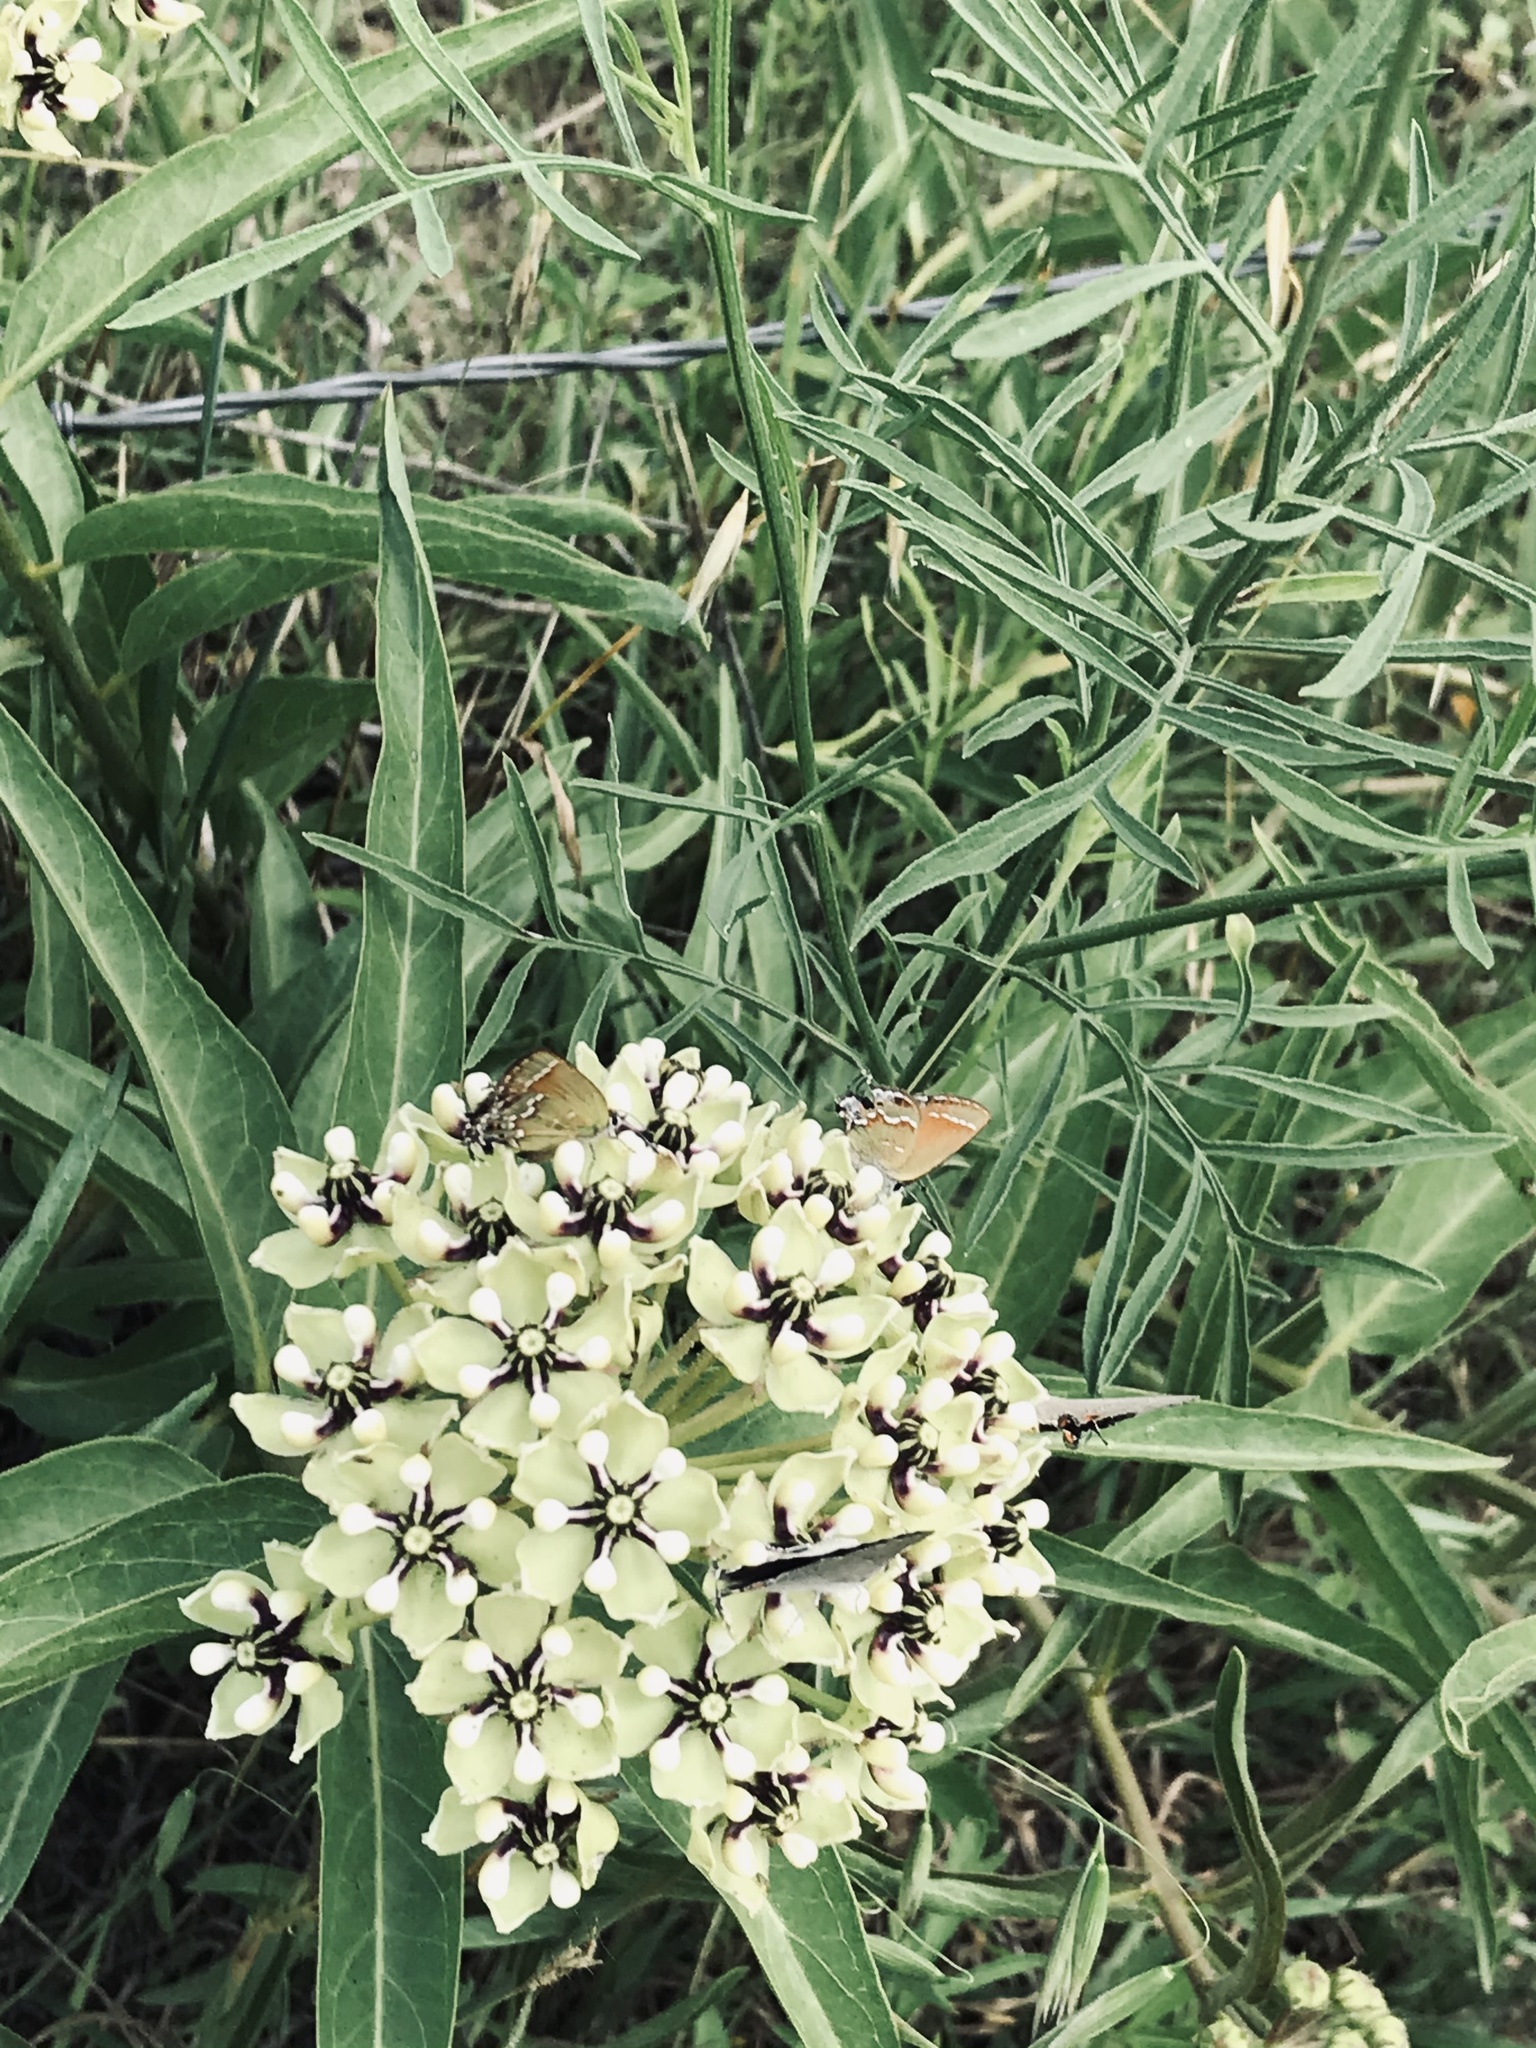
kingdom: Plantae
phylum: Tracheophyta
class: Magnoliopsida
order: Gentianales
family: Apocynaceae
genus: Asclepias
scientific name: Asclepias asperula
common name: Antelope horns
